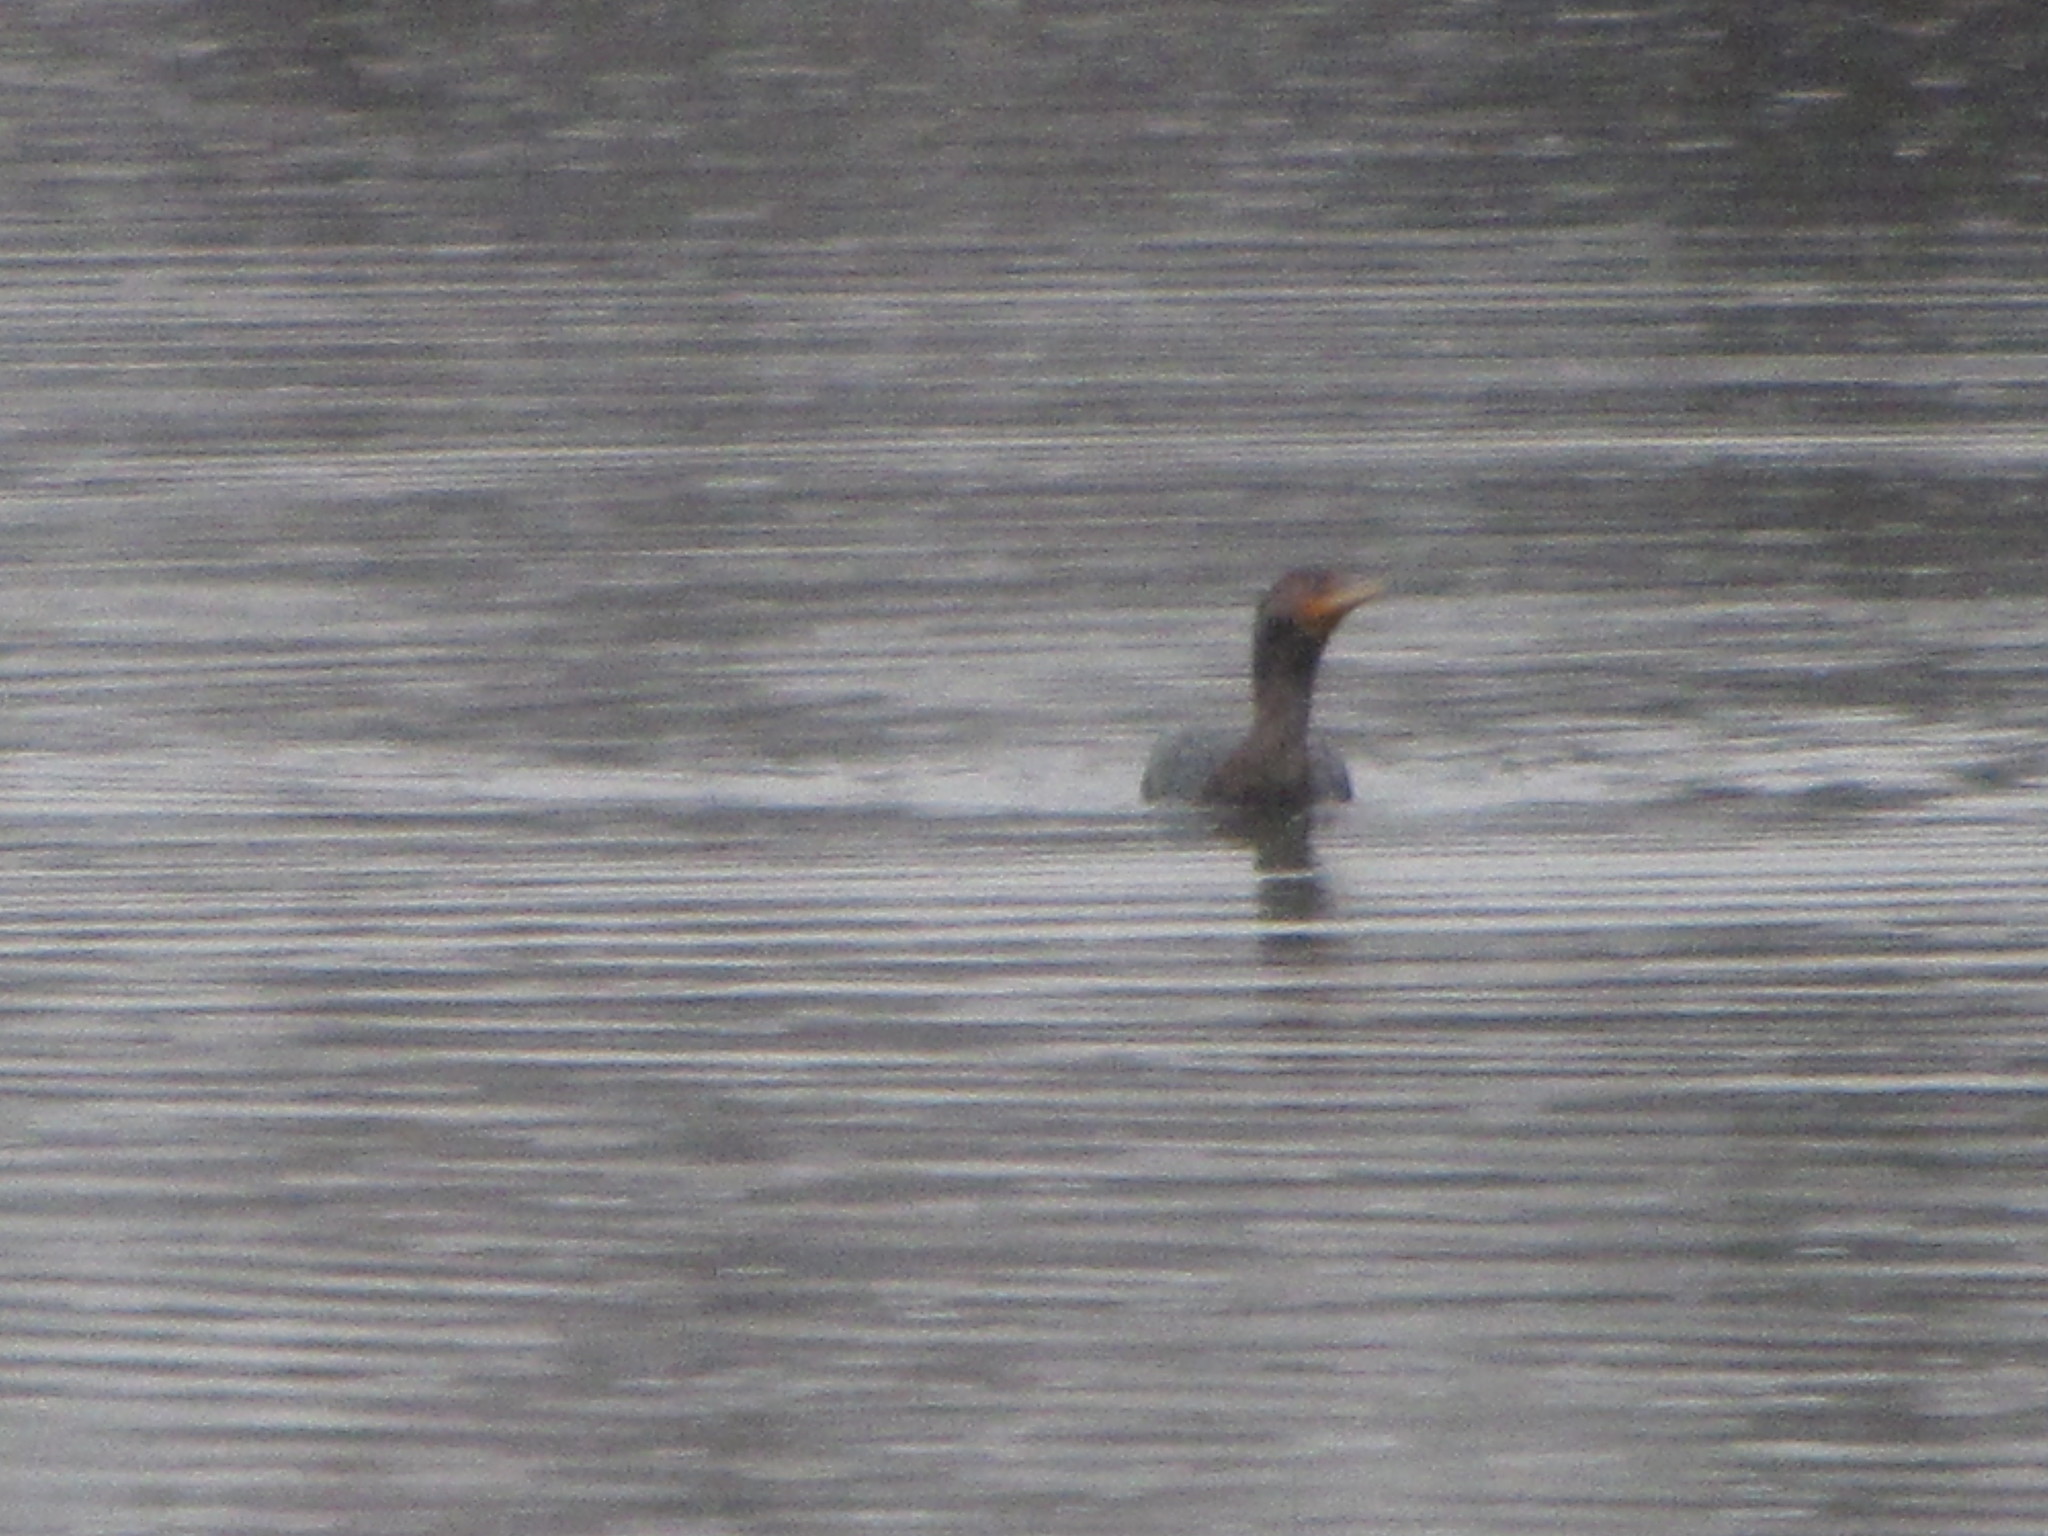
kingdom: Animalia
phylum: Chordata
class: Aves
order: Suliformes
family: Phalacrocoracidae
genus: Phalacrocorax
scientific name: Phalacrocorax auritus
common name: Double-crested cormorant
